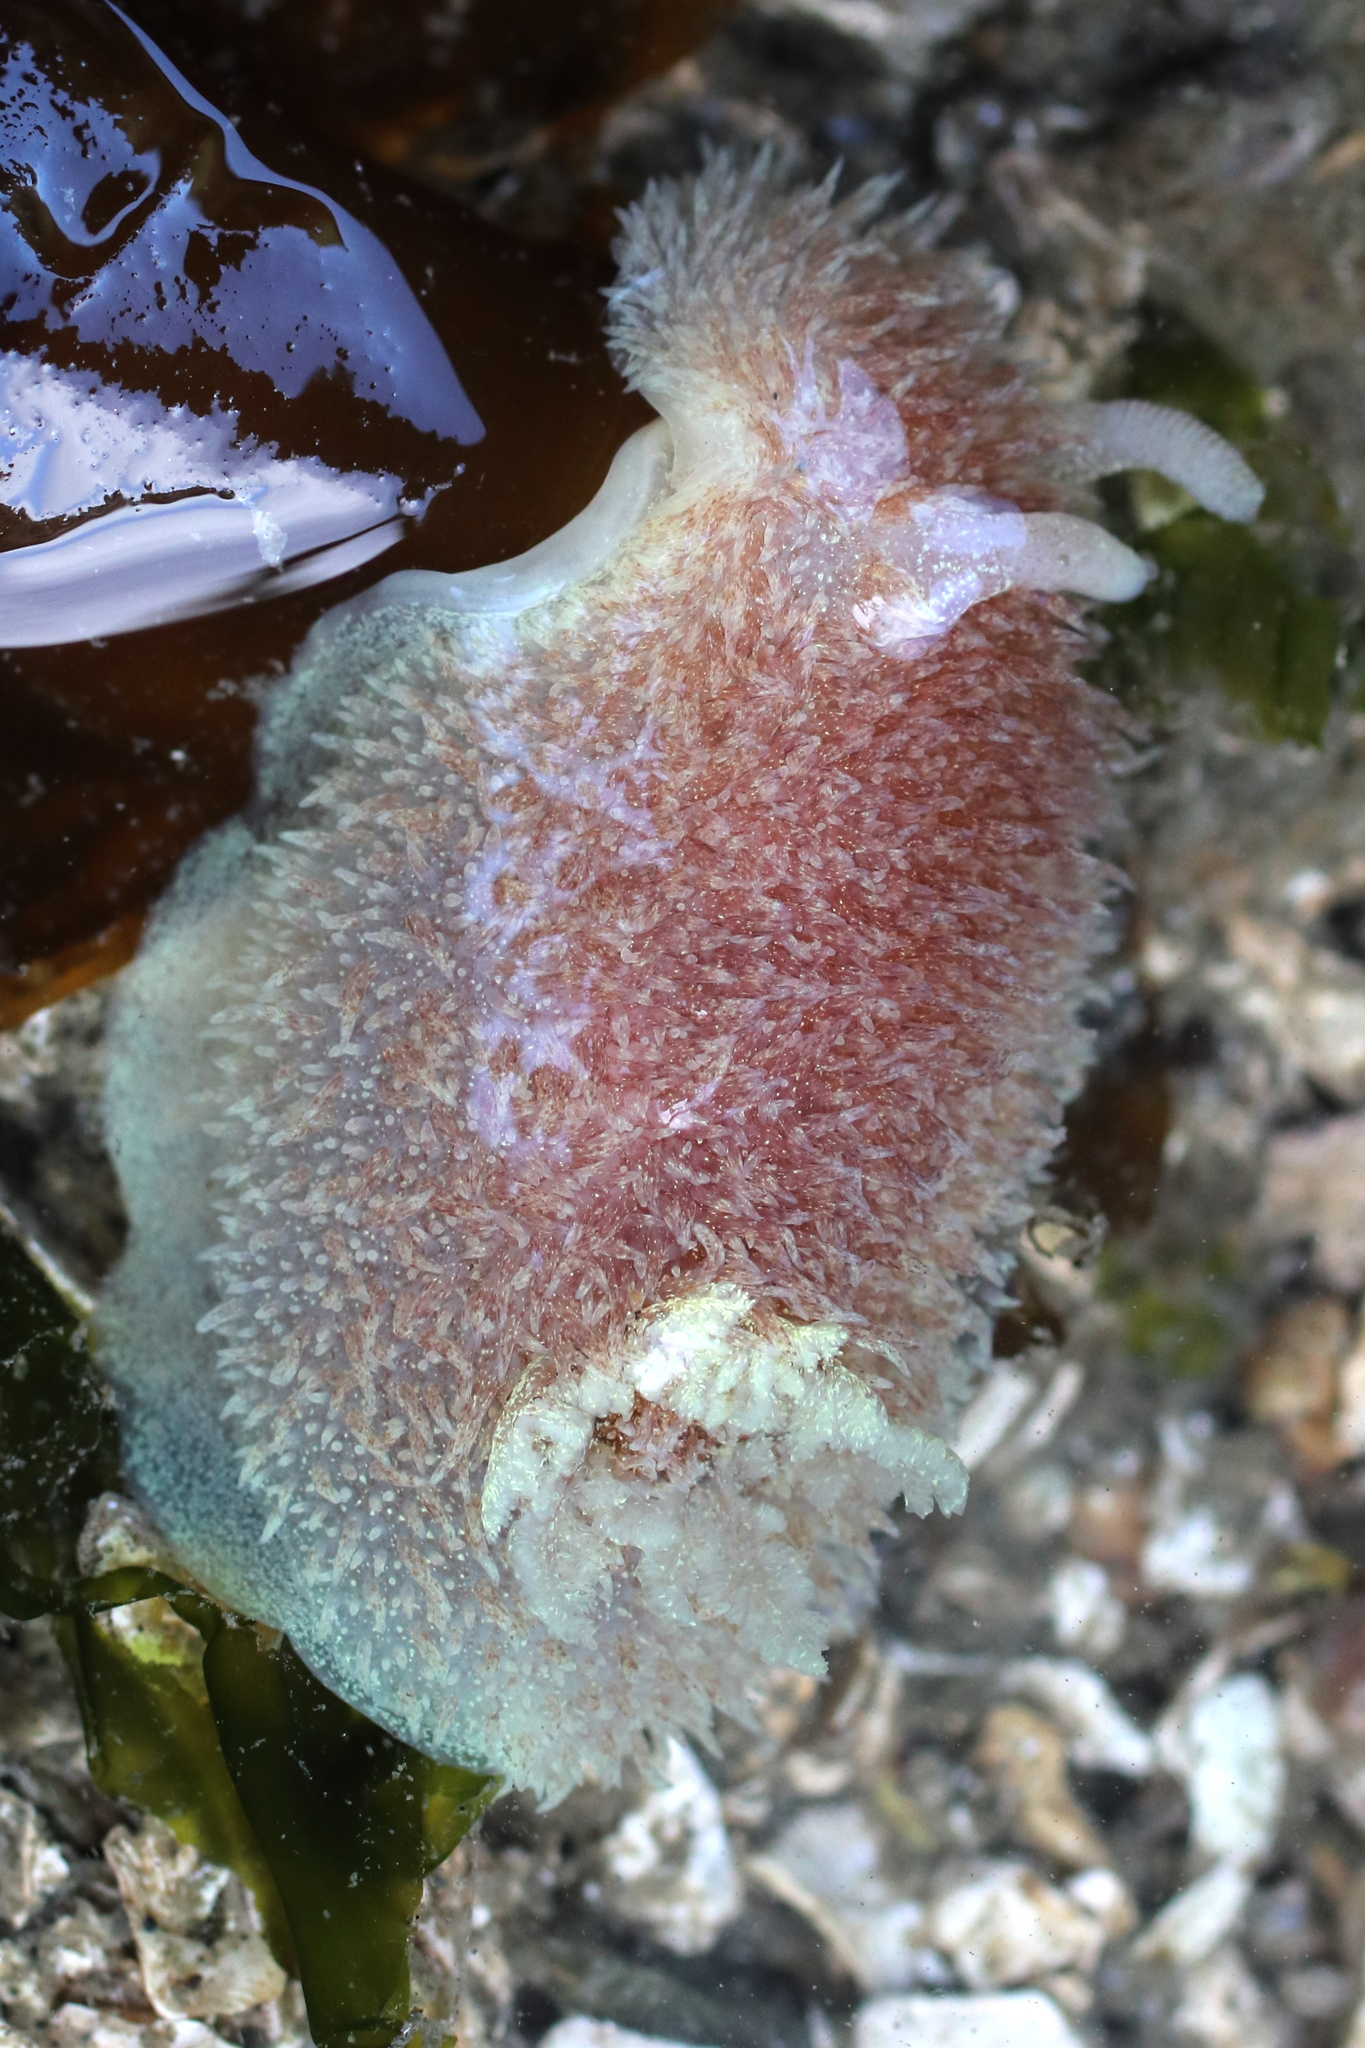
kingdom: Animalia
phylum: Mollusca
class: Gastropoda
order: Nudibranchia
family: Onchidorididae
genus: Acanthodoris
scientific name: Acanthodoris atrogriseata
